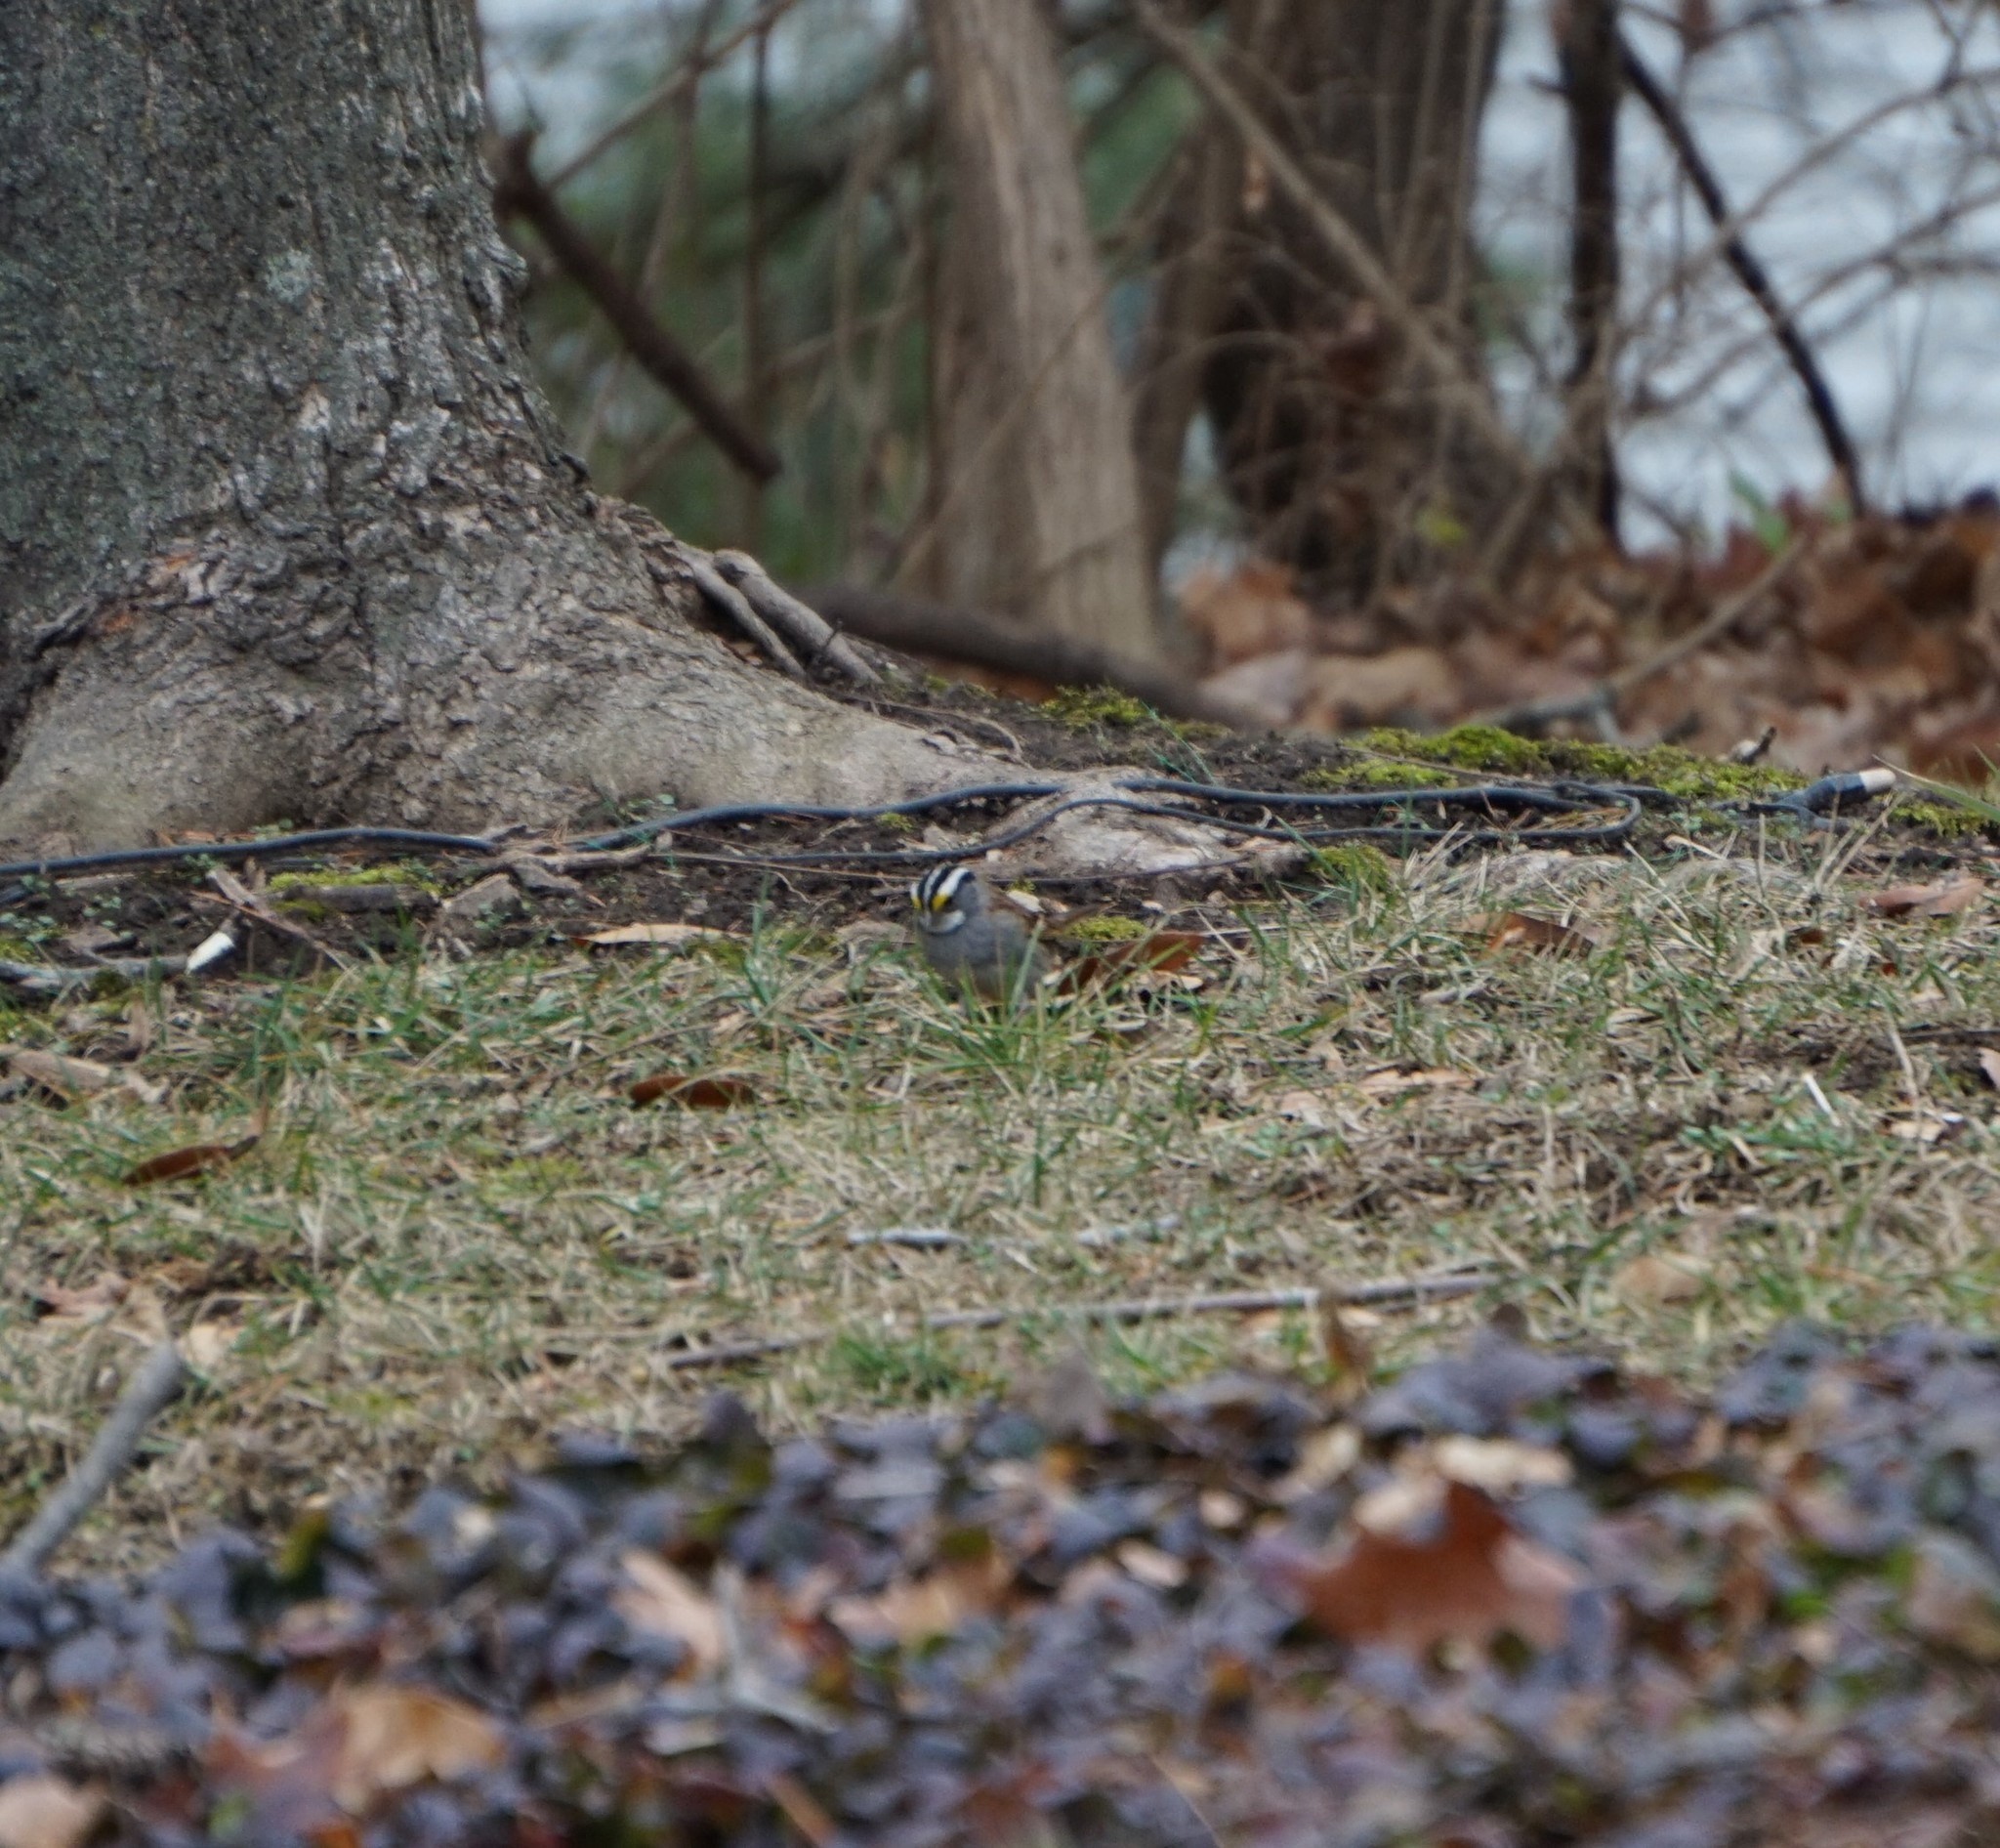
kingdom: Animalia
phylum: Chordata
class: Aves
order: Passeriformes
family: Passerellidae
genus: Zonotrichia
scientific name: Zonotrichia albicollis
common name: White-throated sparrow
